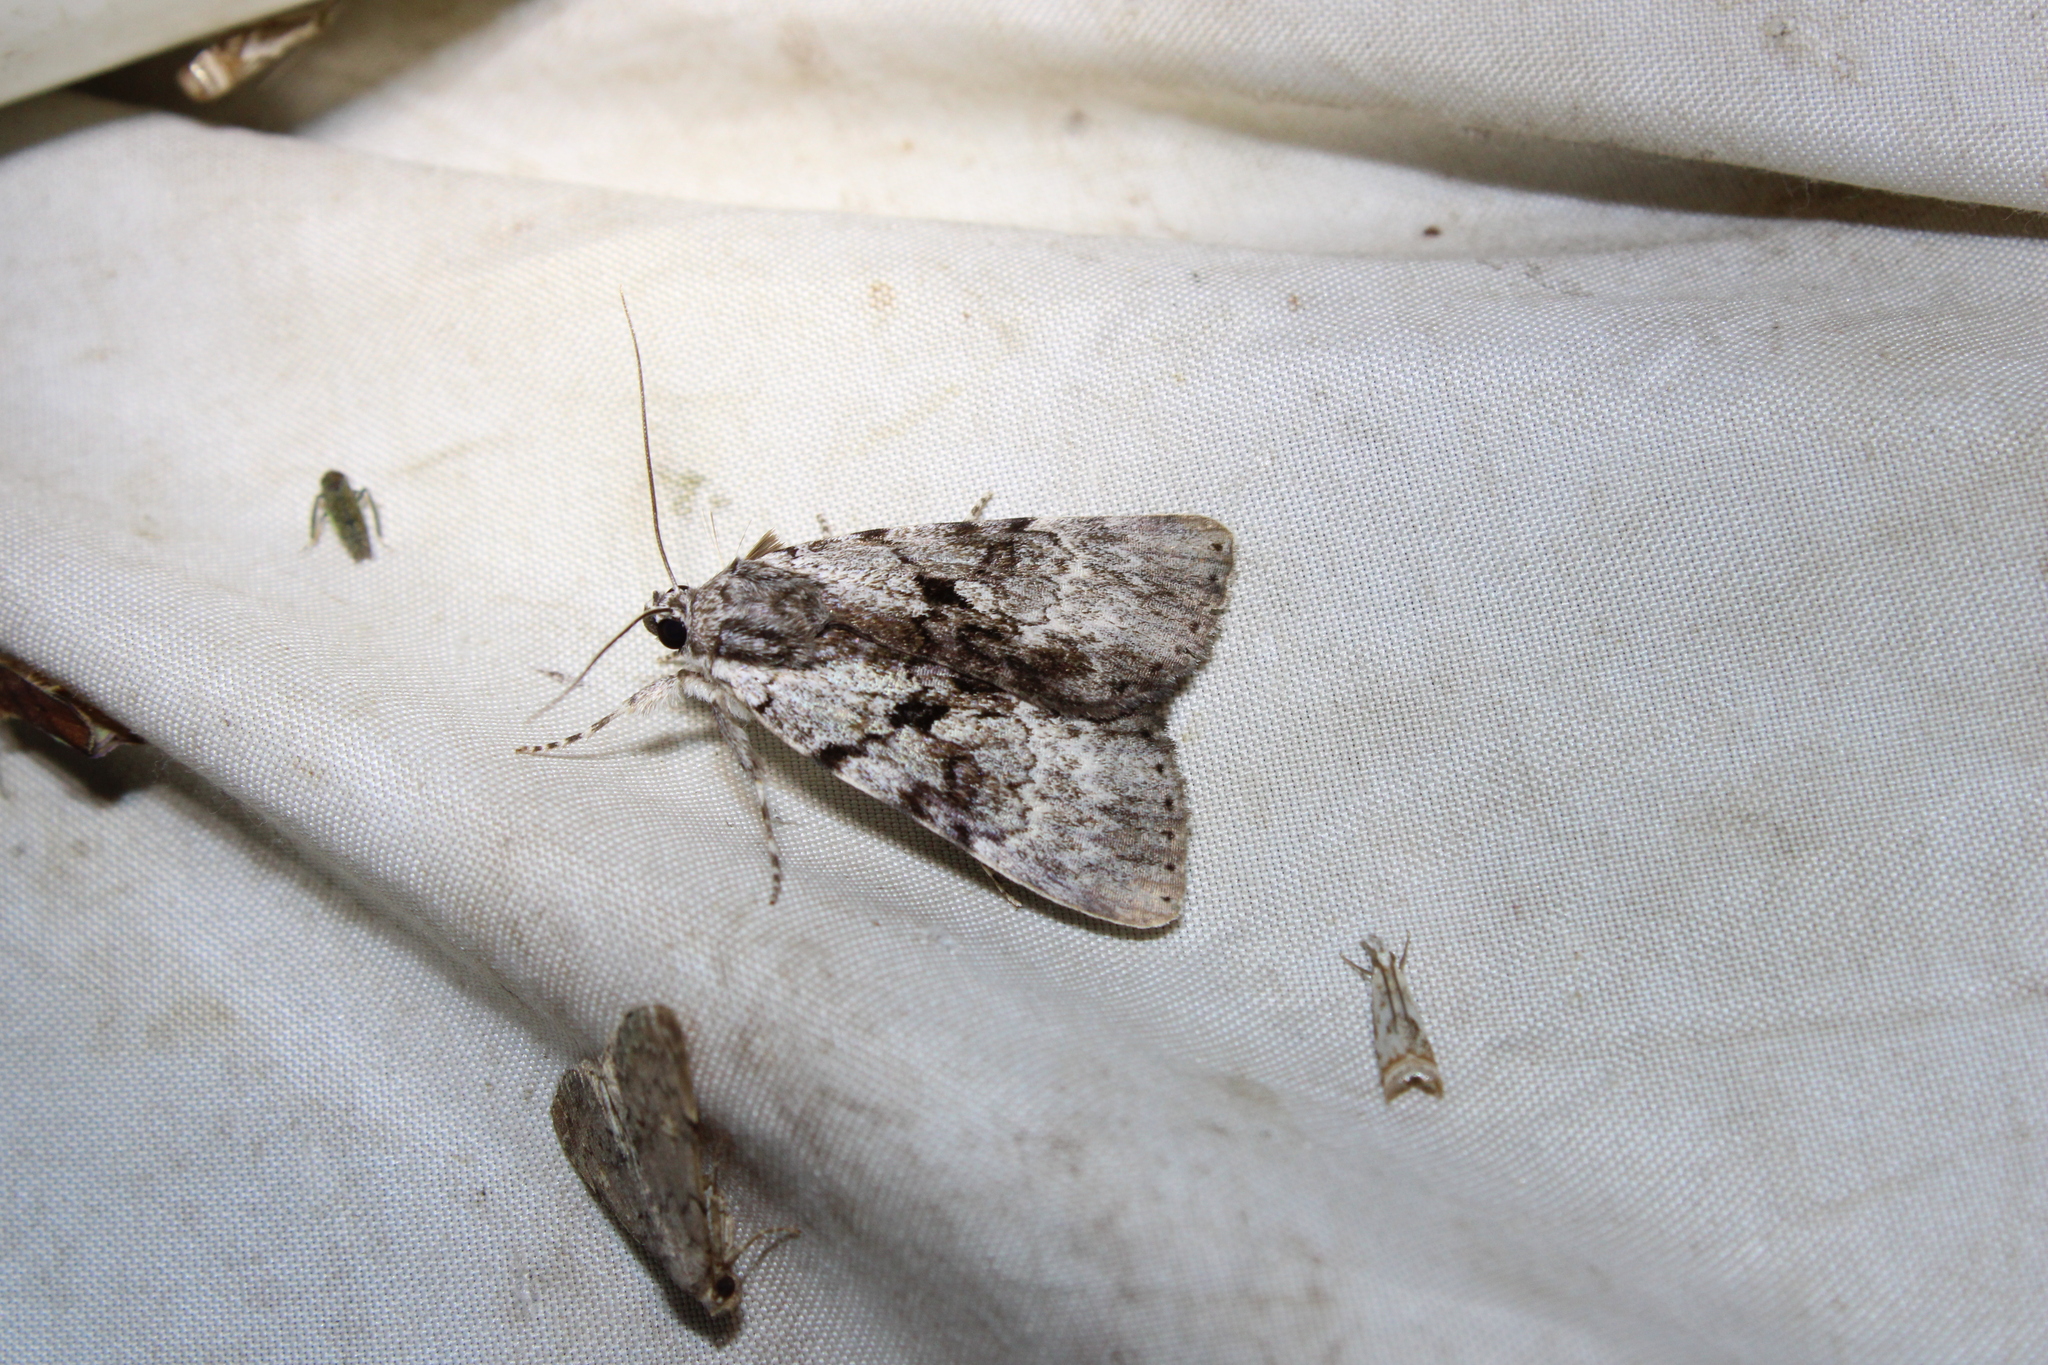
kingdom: Animalia
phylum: Arthropoda
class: Insecta
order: Lepidoptera
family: Erebidae
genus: Catocala
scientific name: Catocala andromedae
